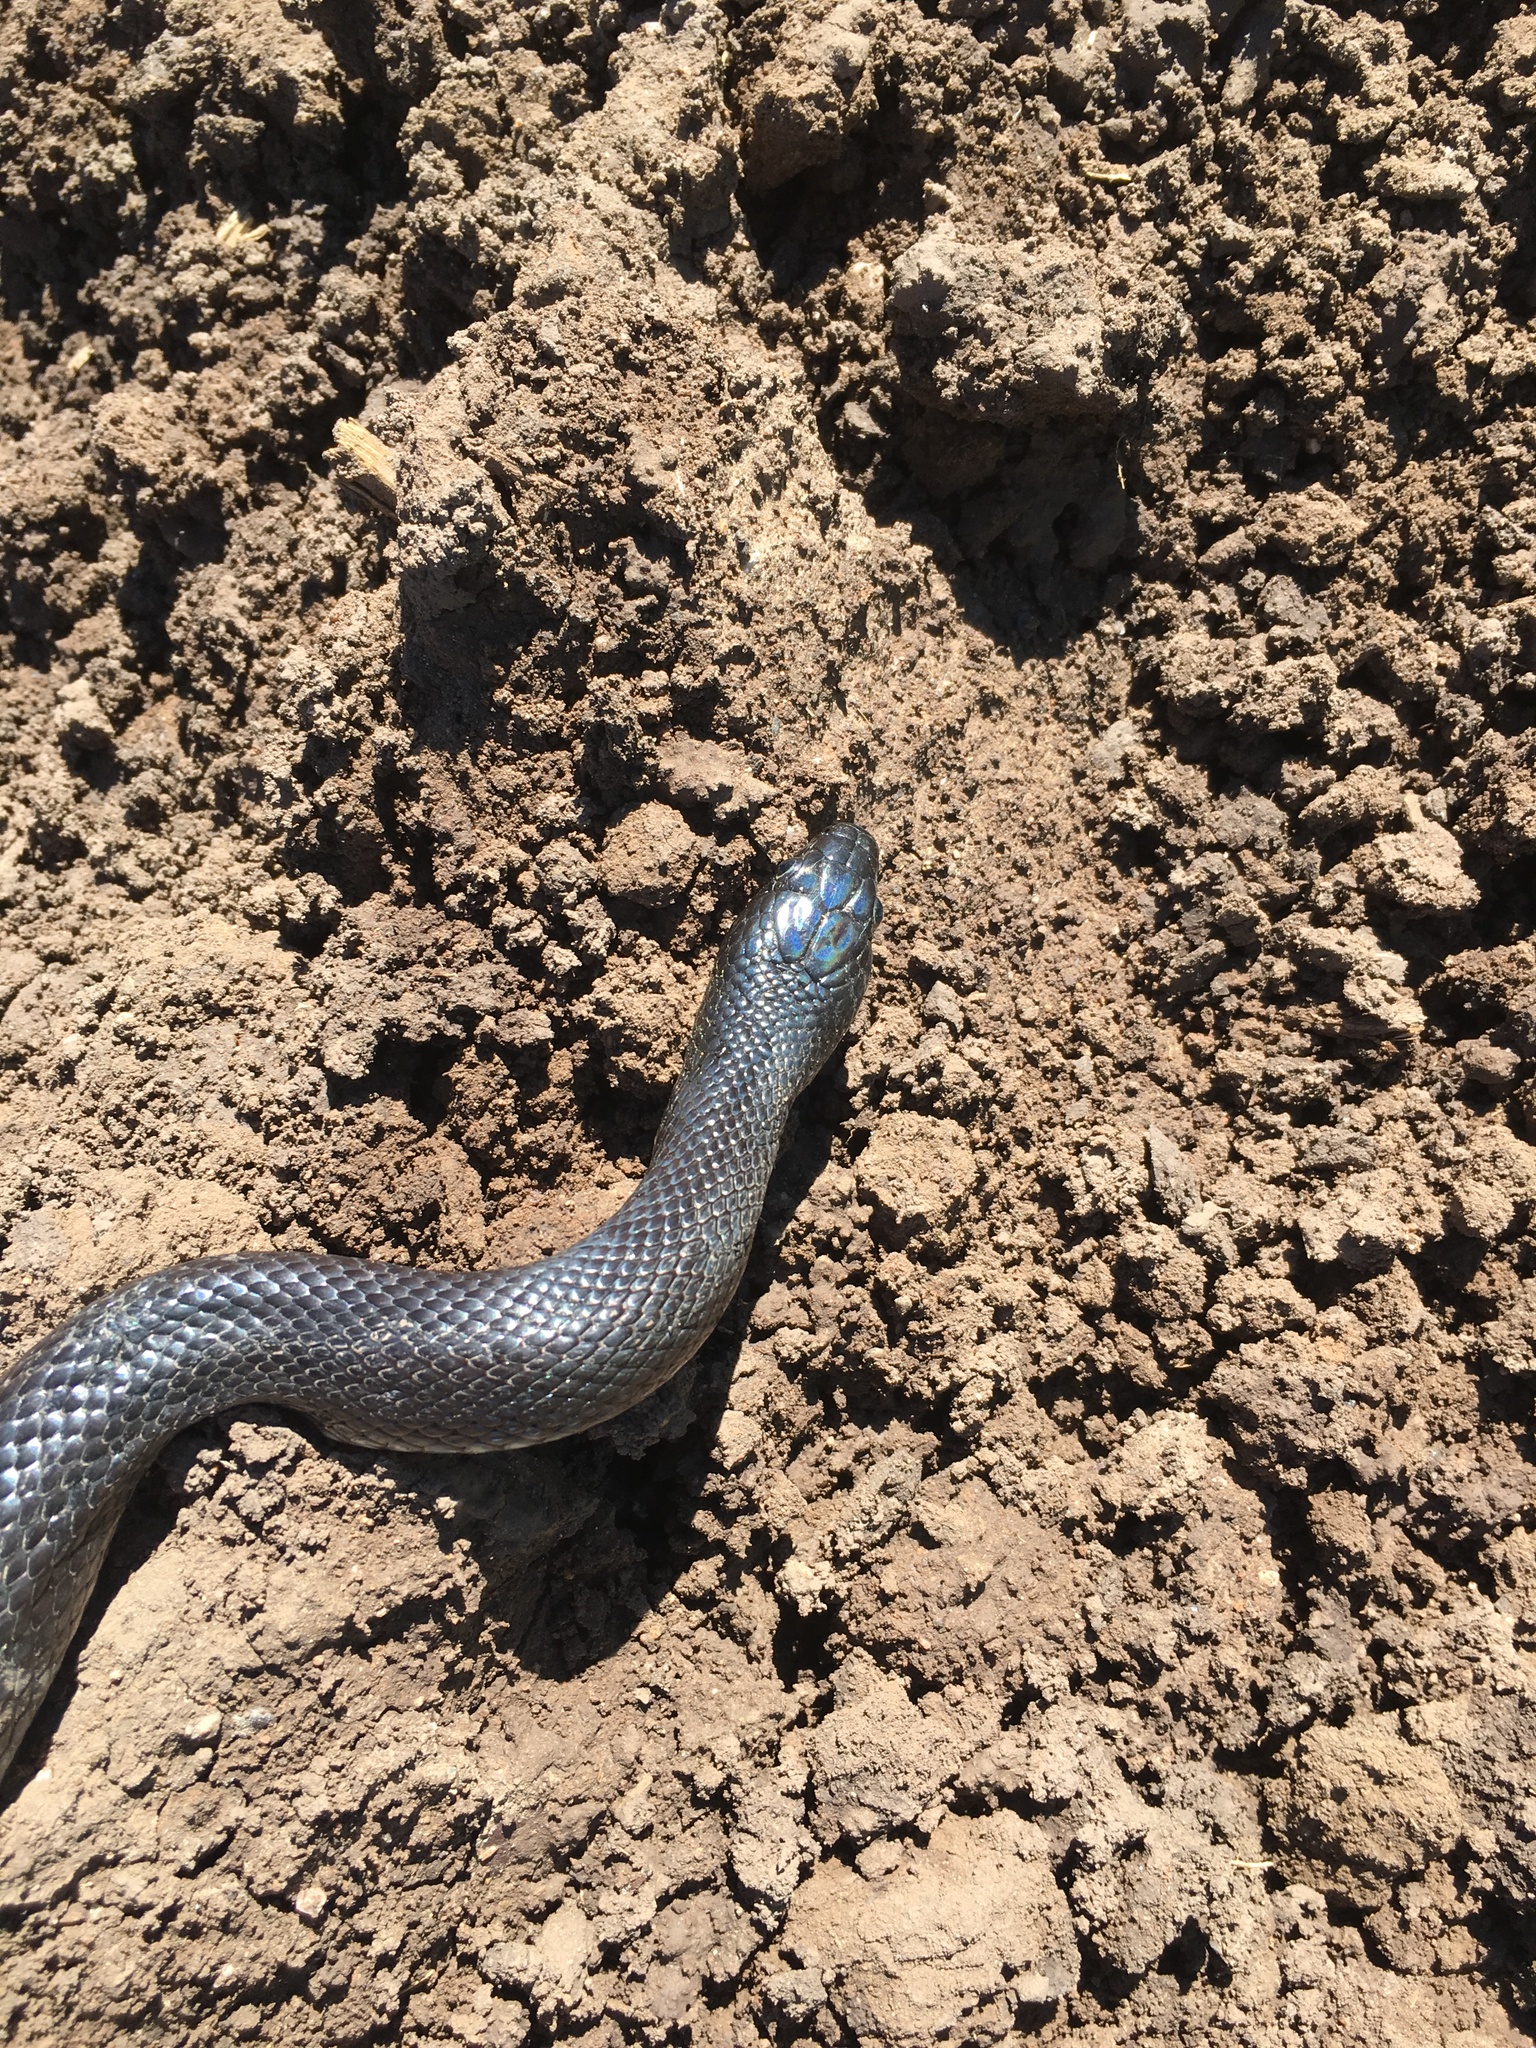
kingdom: Animalia
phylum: Chordata
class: Squamata
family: Colubridae
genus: Lampropeltis
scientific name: Lampropeltis splendida
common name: Desert kingsnake
